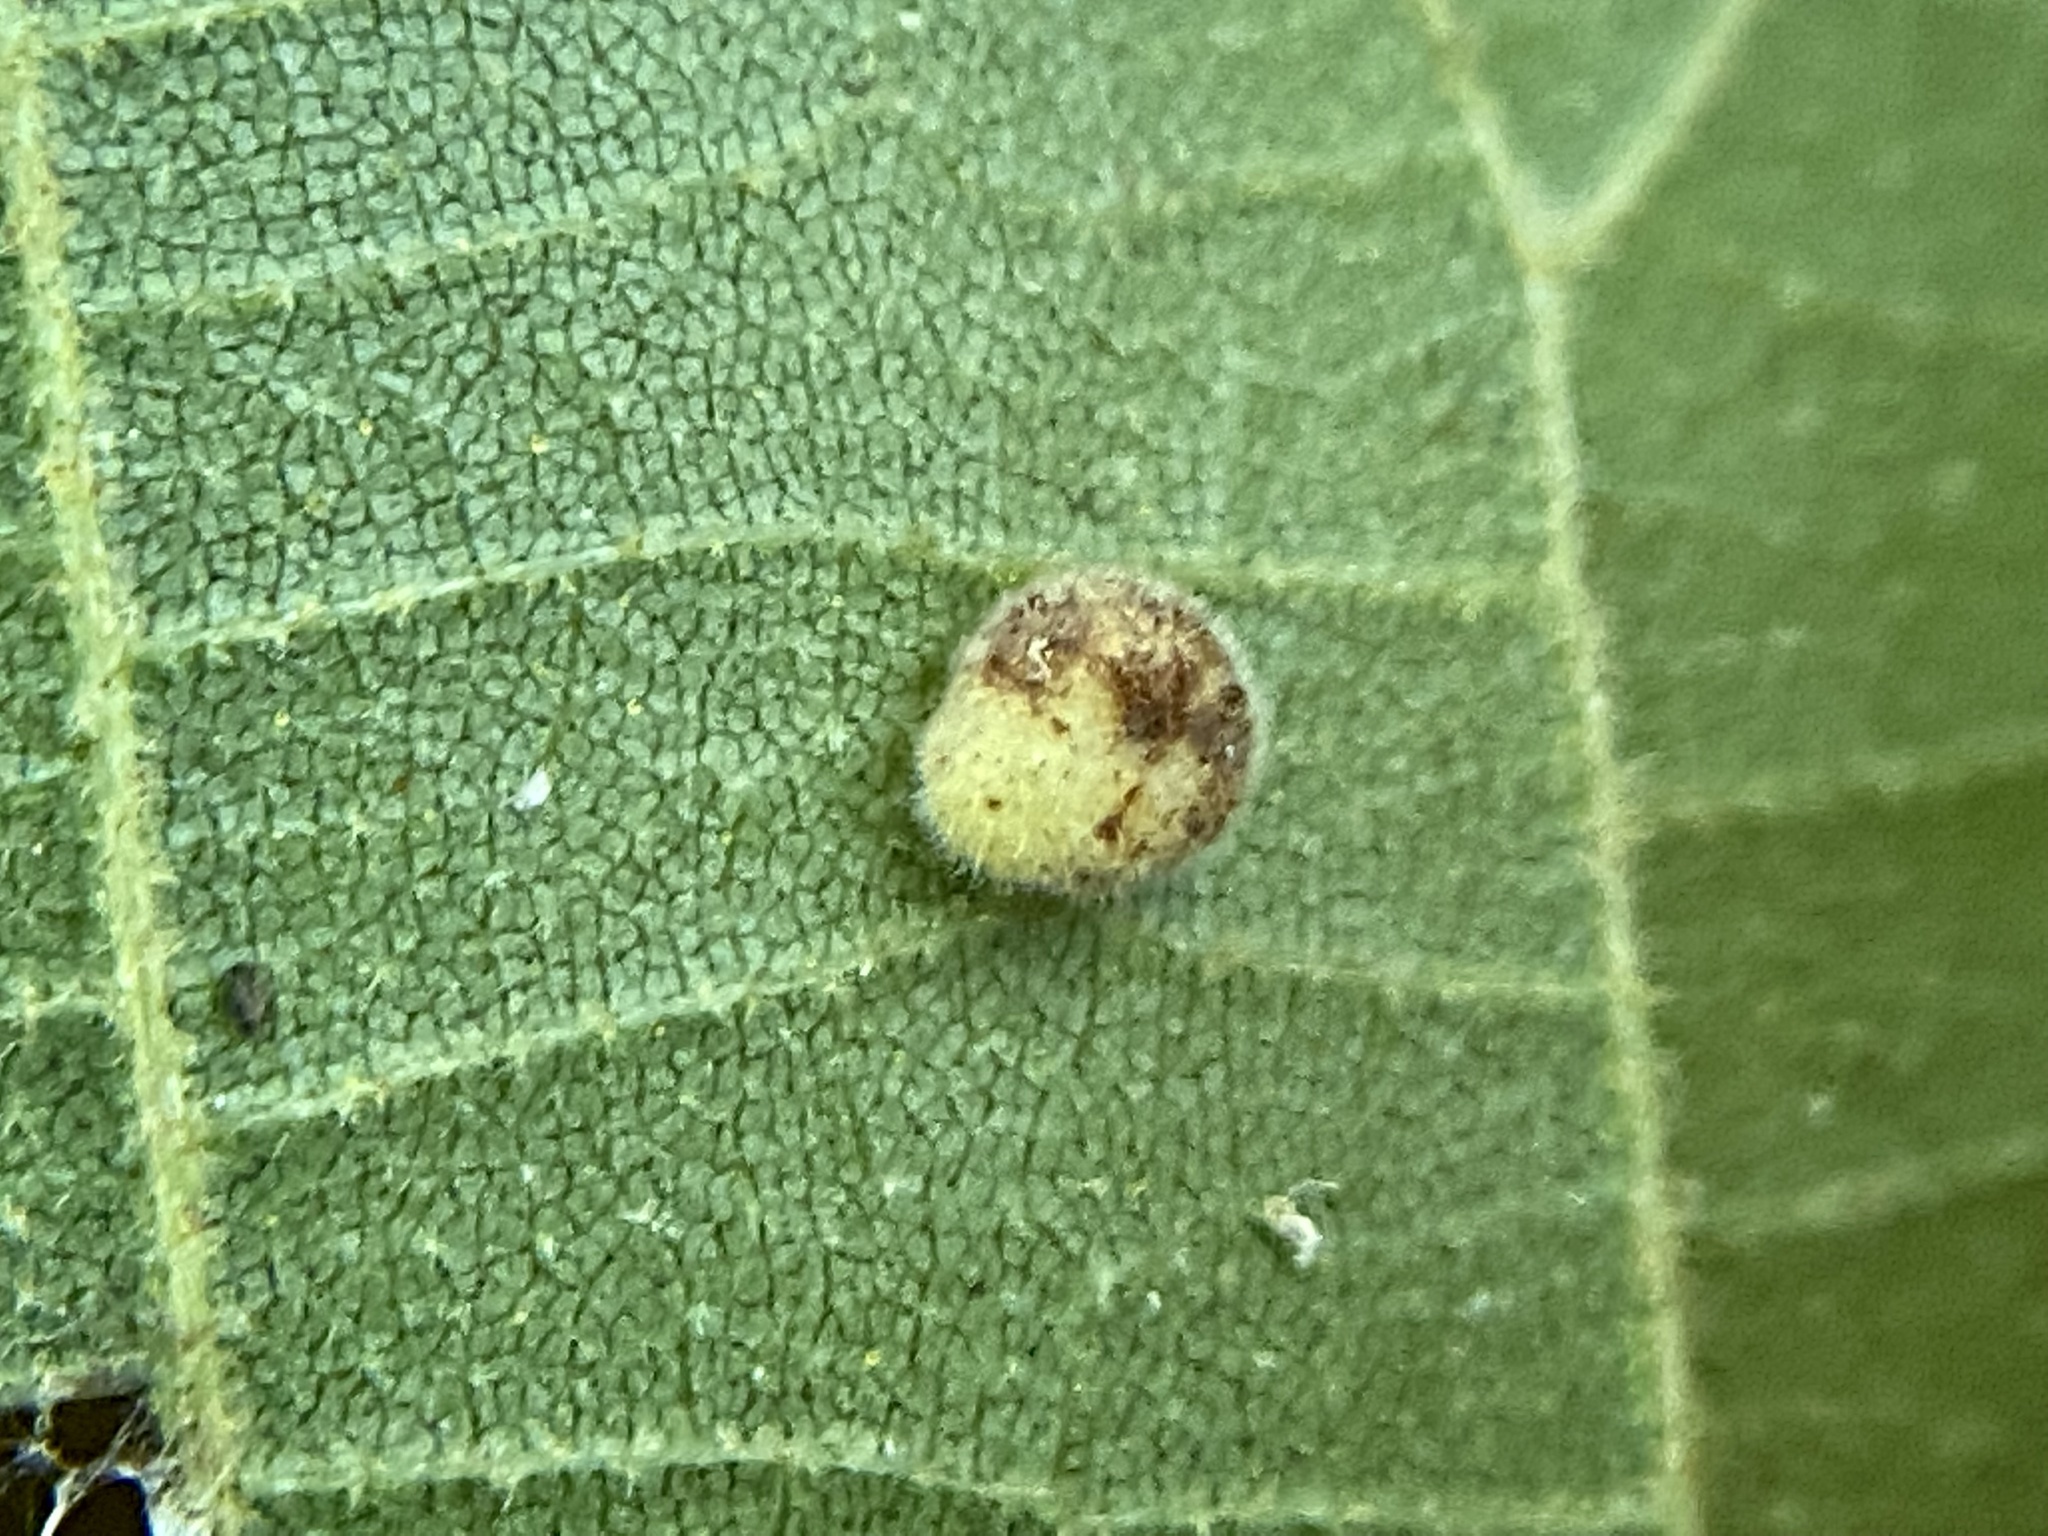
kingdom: Animalia
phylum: Arthropoda
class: Insecta
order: Diptera
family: Cecidomyiidae
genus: Caryomyia
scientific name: Caryomyia thompsoni
